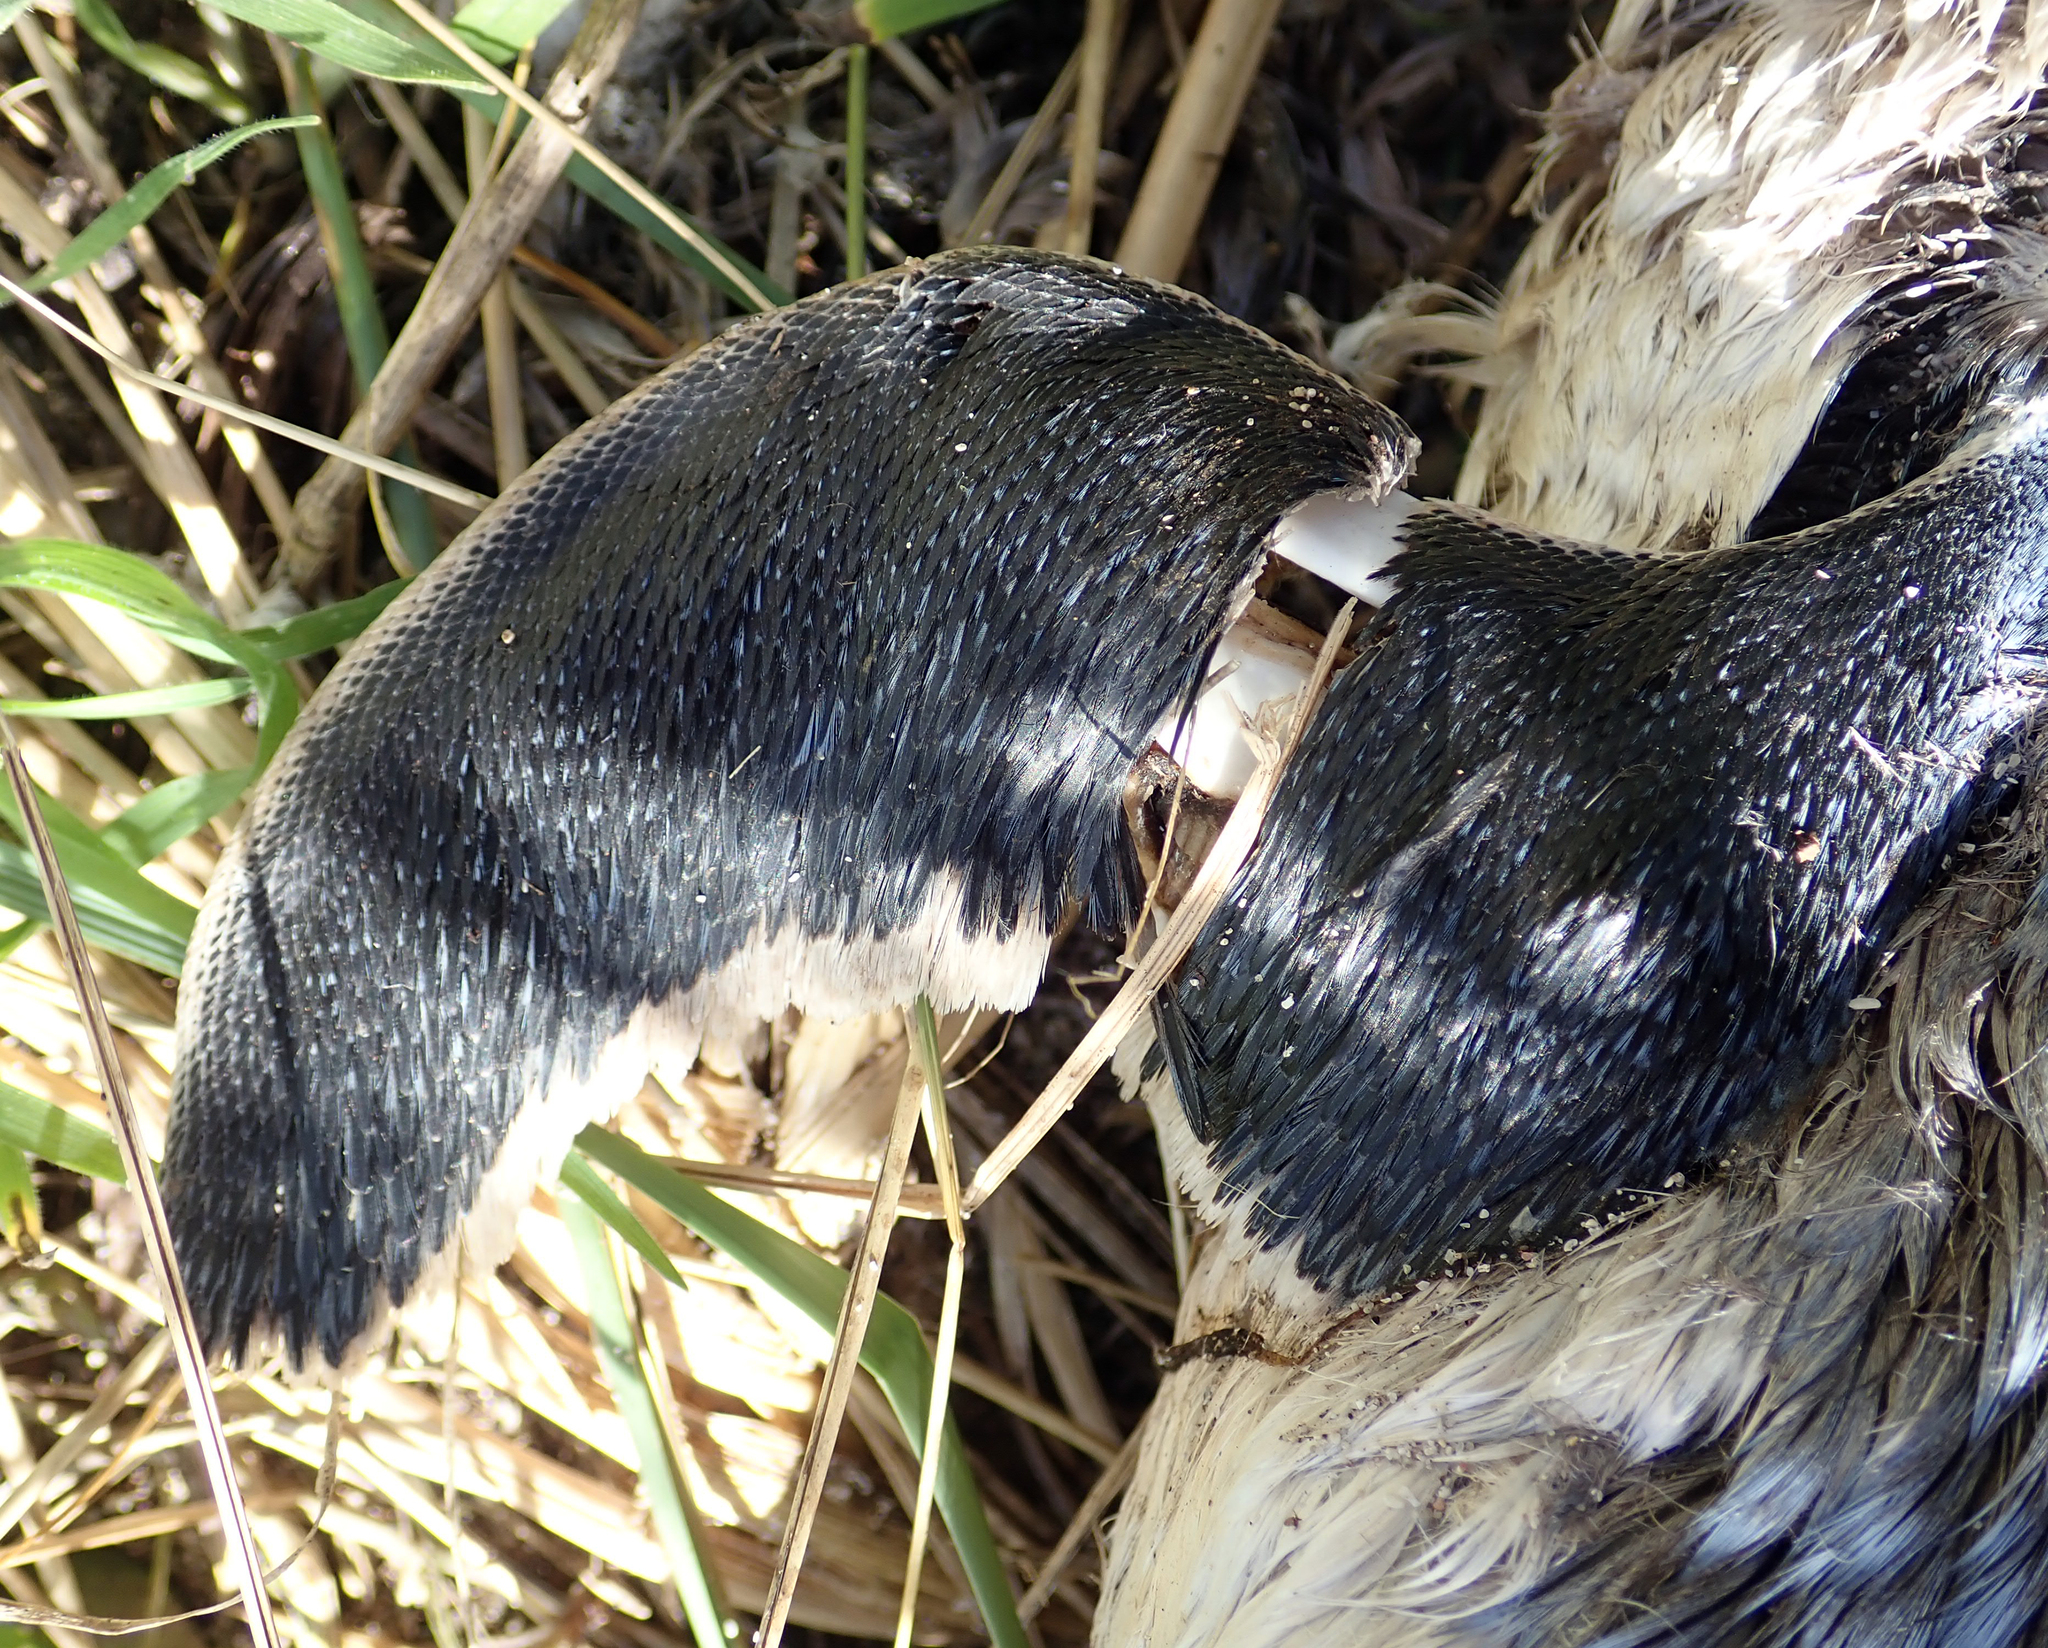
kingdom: Animalia
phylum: Chordata
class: Aves
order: Sphenisciformes
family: Spheniscidae
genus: Eudyptula
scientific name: Eudyptula minor
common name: Little penguin
